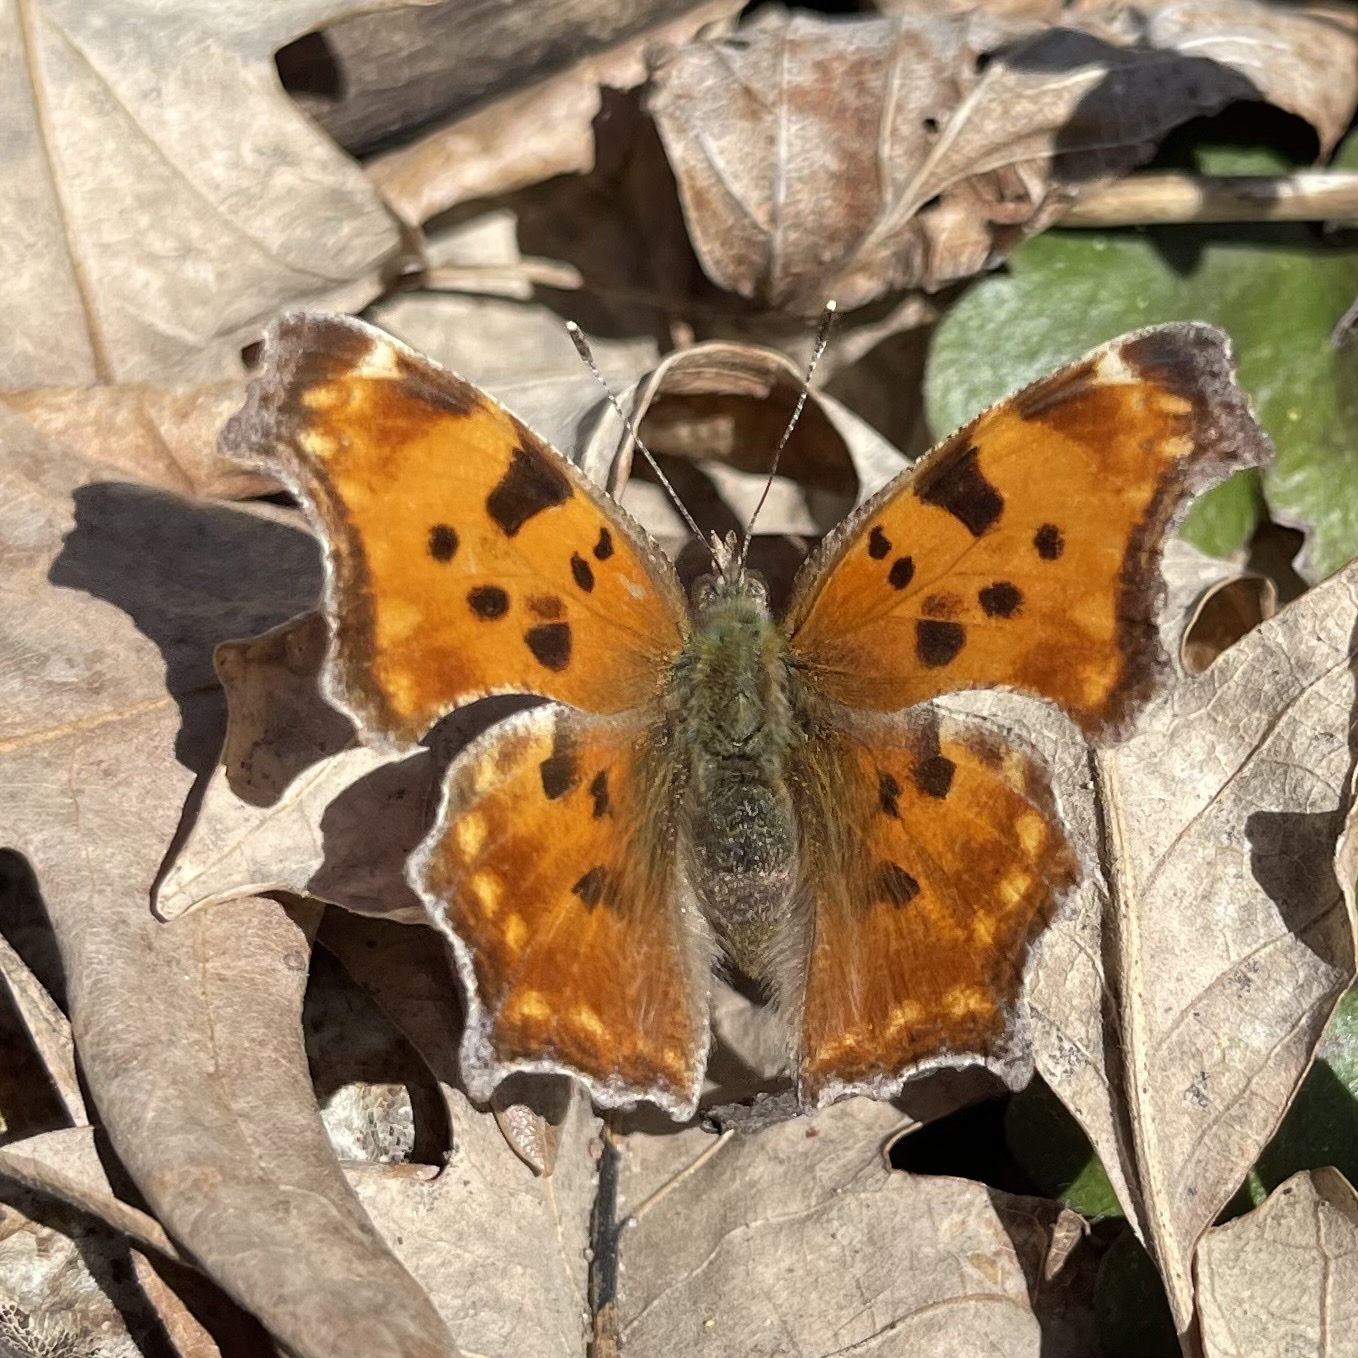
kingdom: Animalia
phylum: Arthropoda
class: Insecta
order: Lepidoptera
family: Nymphalidae
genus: Polygonia
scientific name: Polygonia comma
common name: Eastern comma
